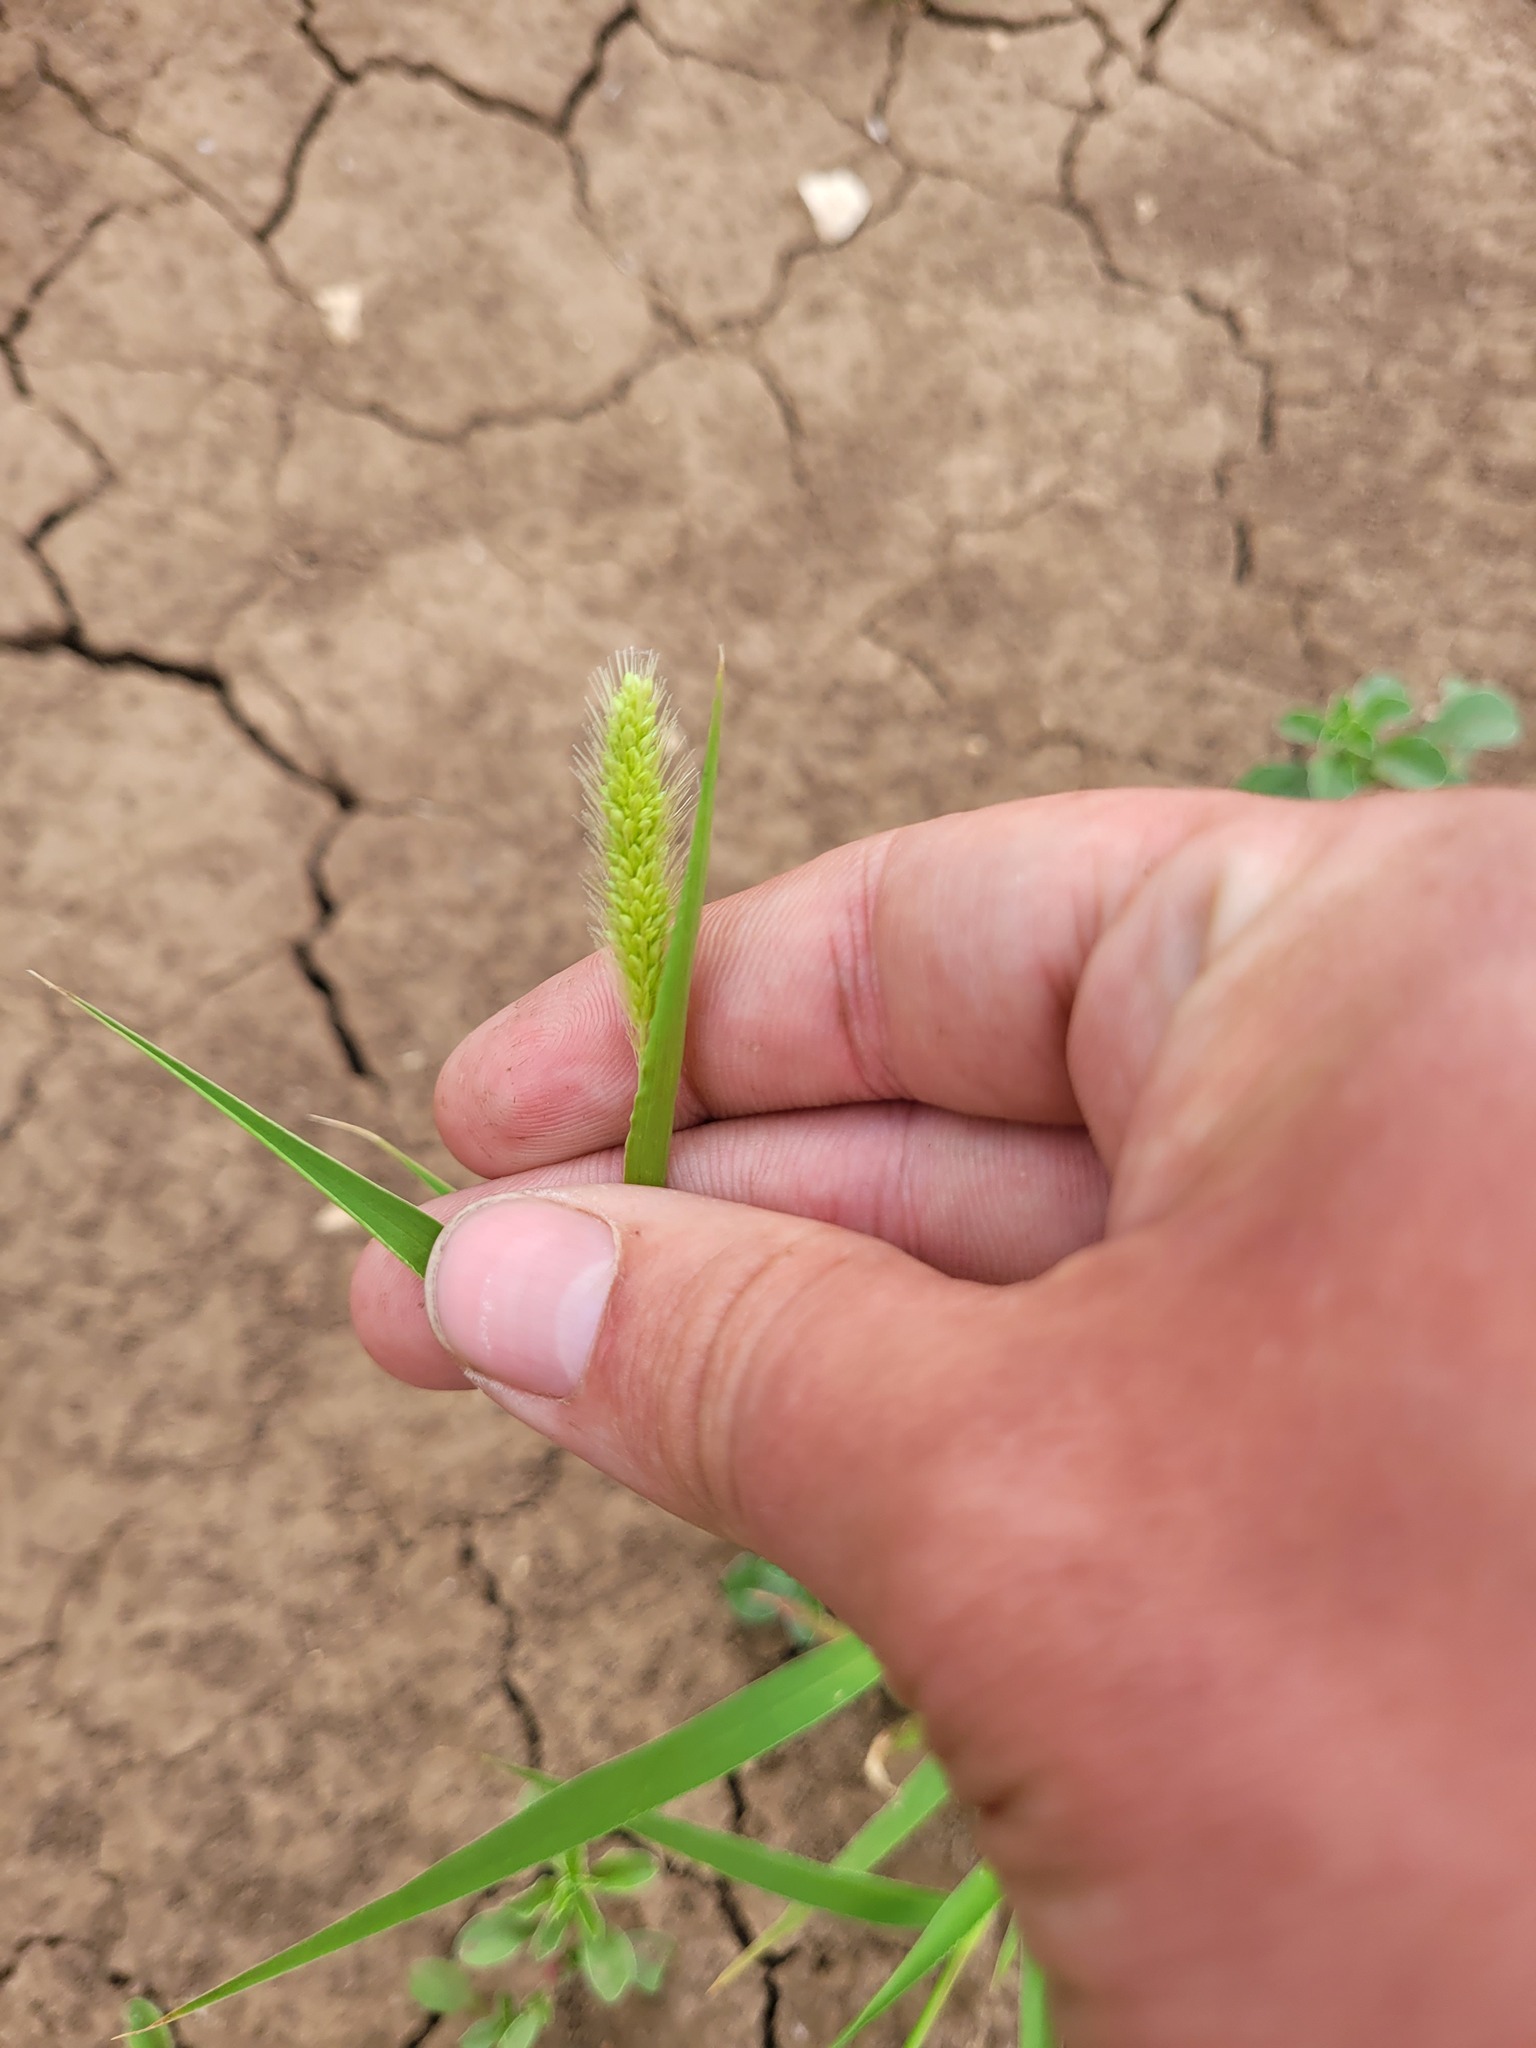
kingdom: Plantae
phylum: Tracheophyta
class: Liliopsida
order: Poales
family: Poaceae
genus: Setaria
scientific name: Setaria viridis
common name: Green bristlegrass
